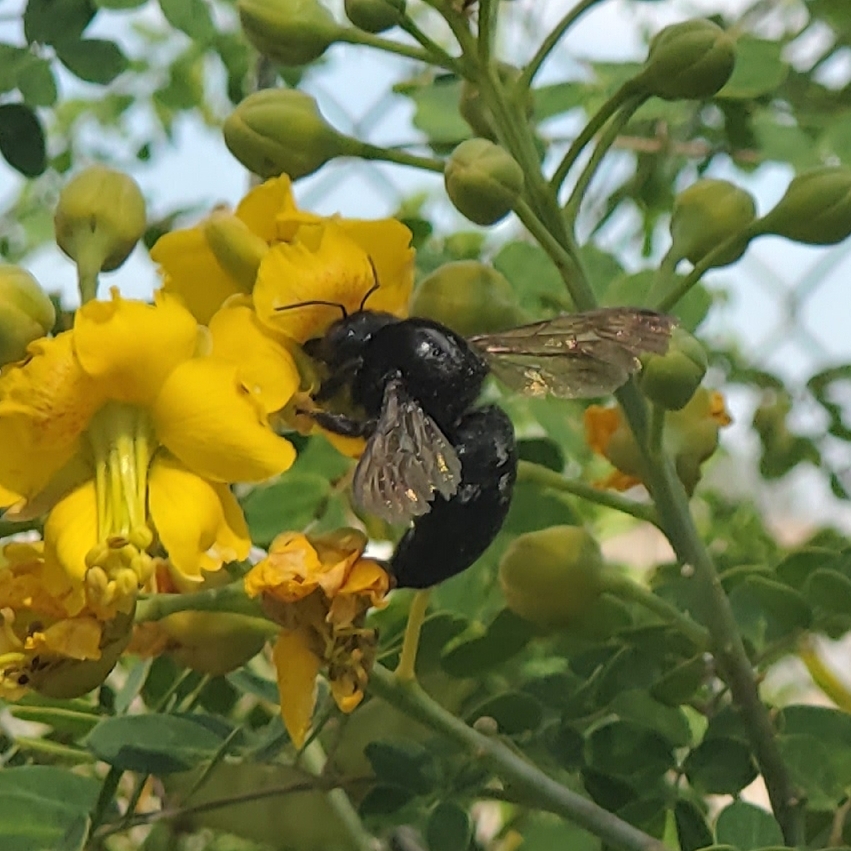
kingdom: Animalia
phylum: Arthropoda
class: Insecta
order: Hymenoptera
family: Apidae
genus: Xylocopa
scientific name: Xylocopa sonorina
